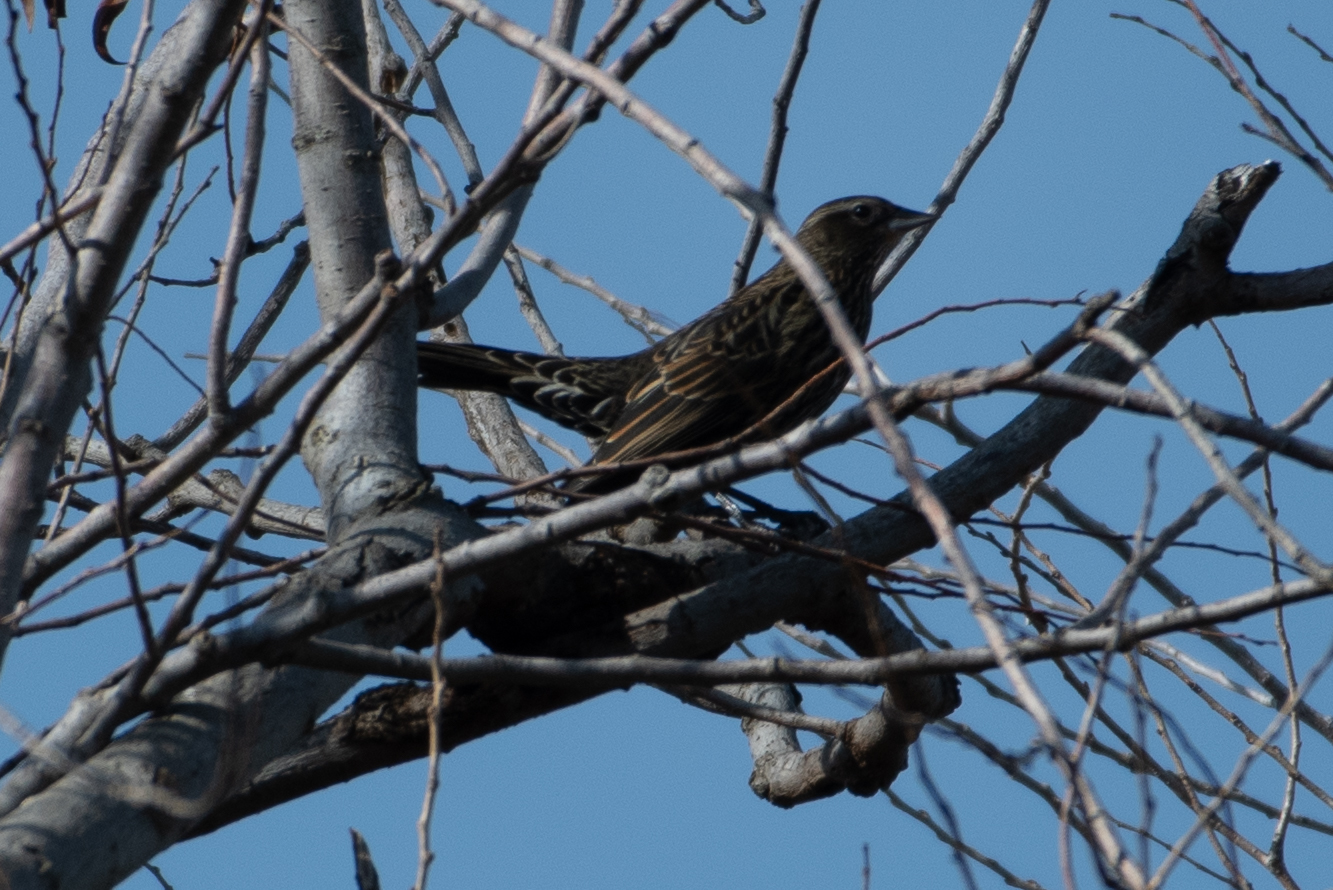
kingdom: Animalia
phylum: Chordata
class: Aves
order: Passeriformes
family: Icteridae
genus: Agelaius
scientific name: Agelaius phoeniceus
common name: Red-winged blackbird
